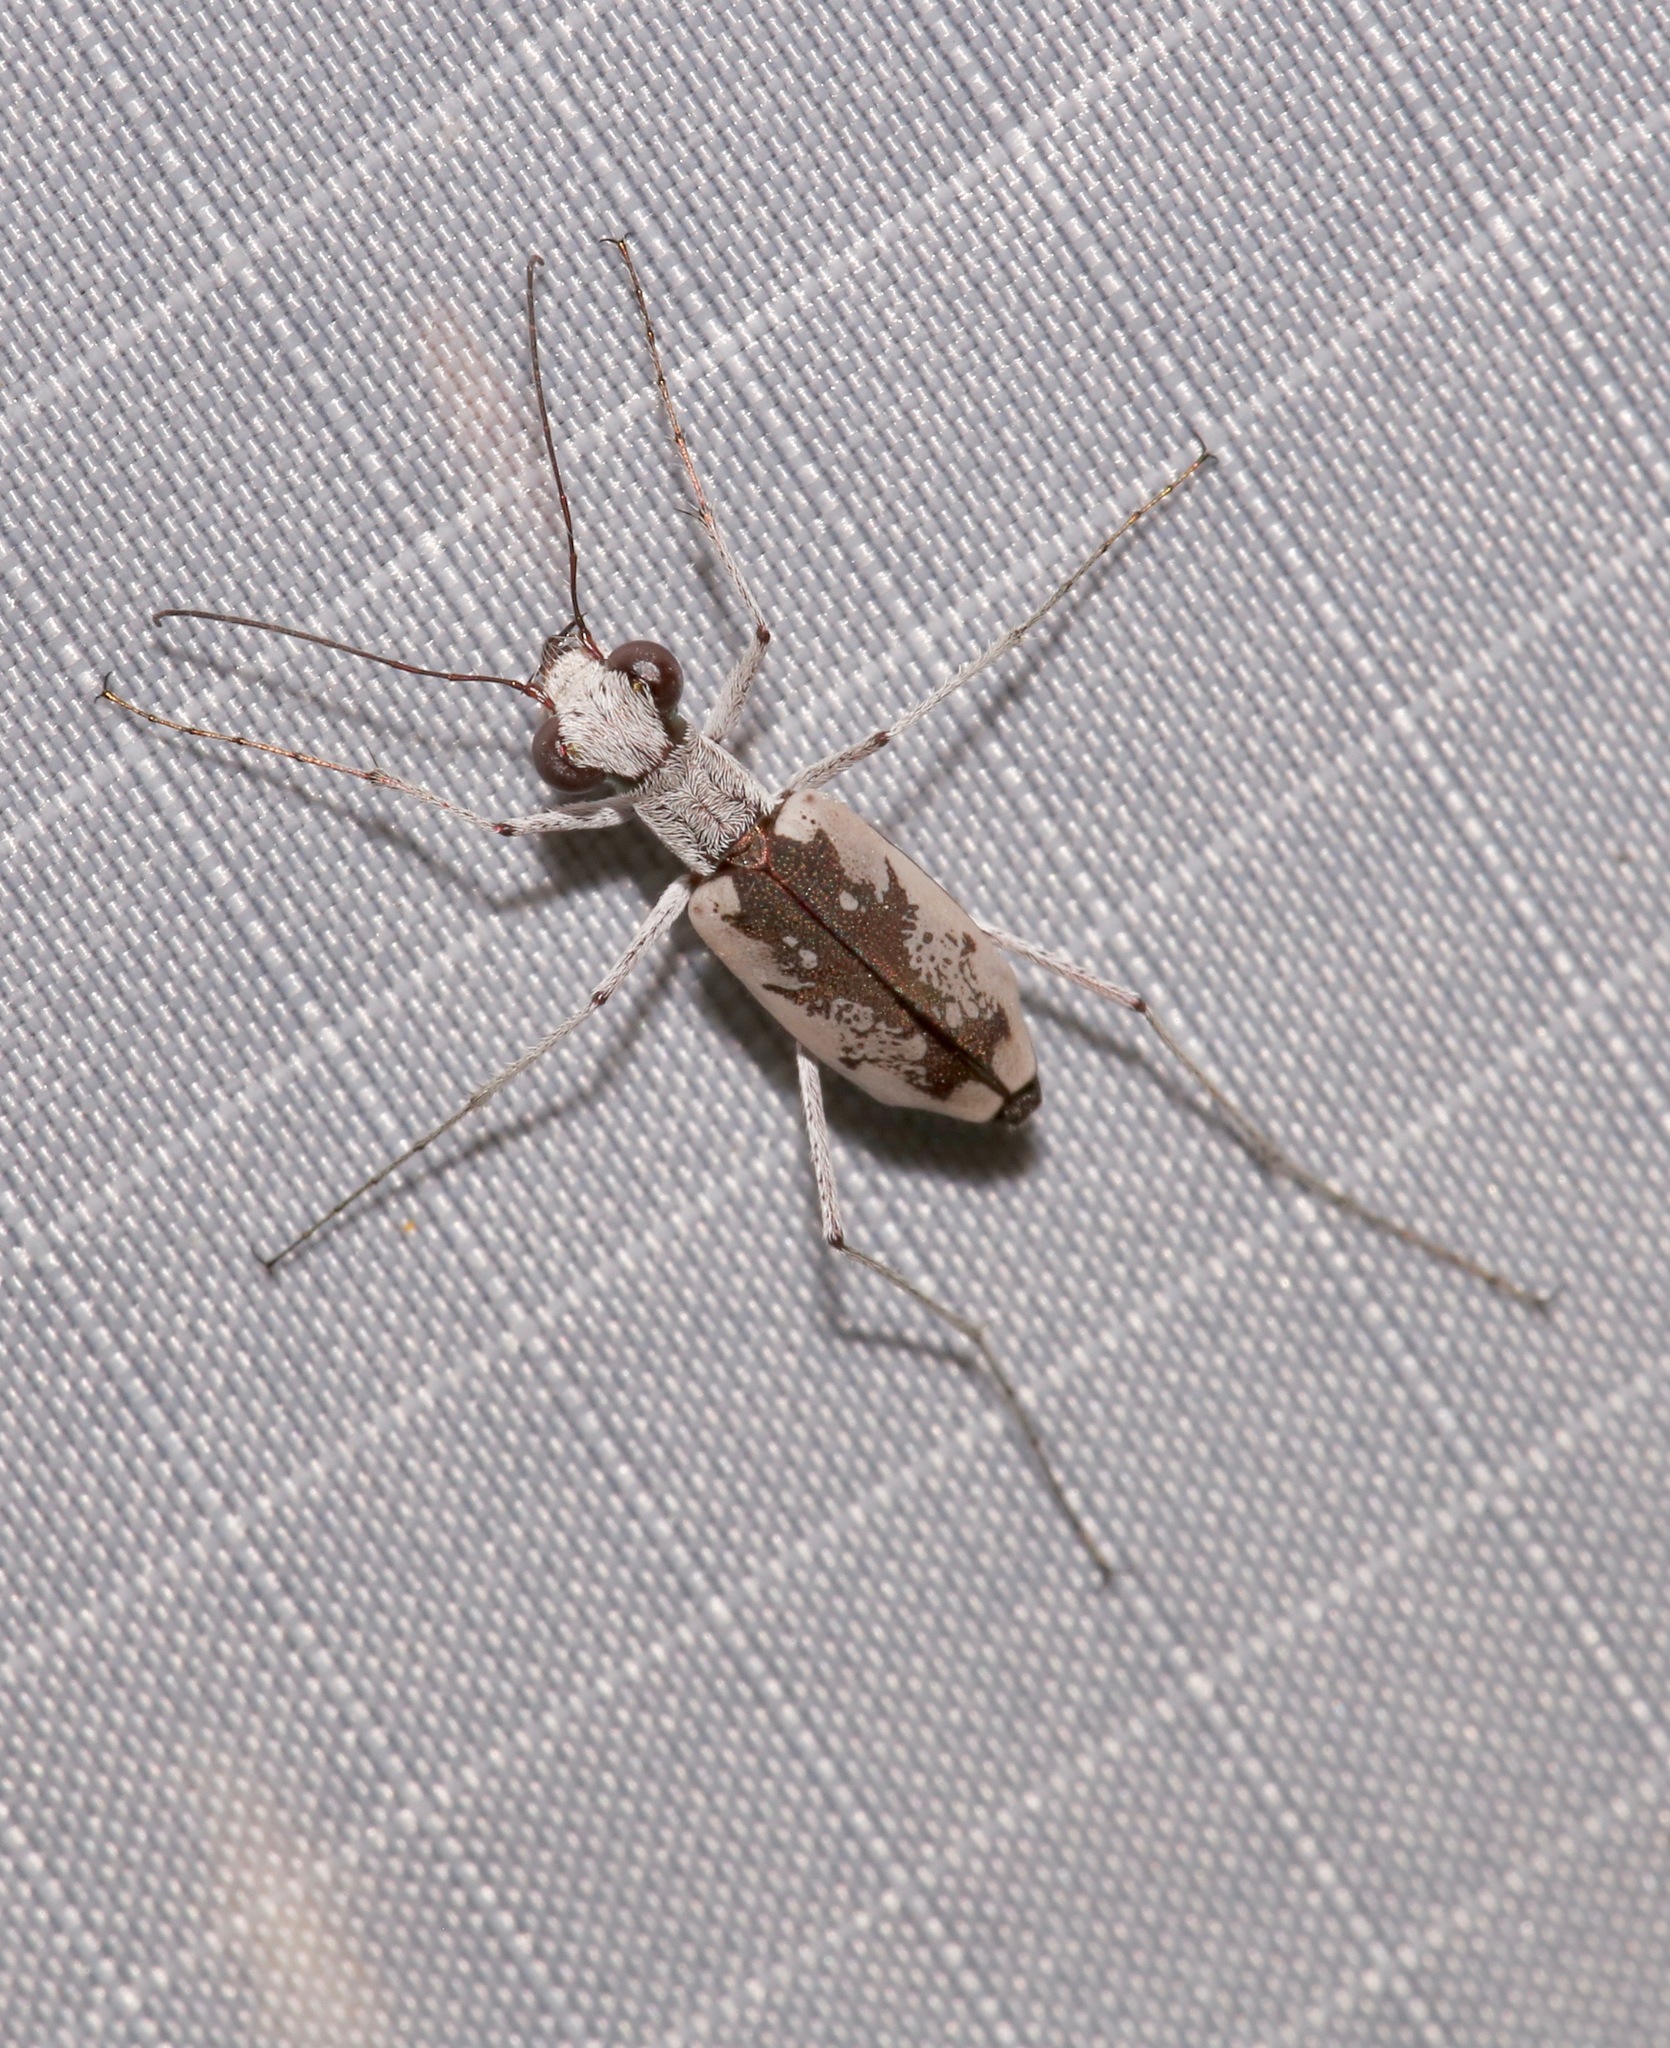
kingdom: Animalia
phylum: Arthropoda
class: Insecta
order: Coleoptera
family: Carabidae
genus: Ellipsoptera
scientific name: Ellipsoptera hirtilabris
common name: Moustached tiger beetle
